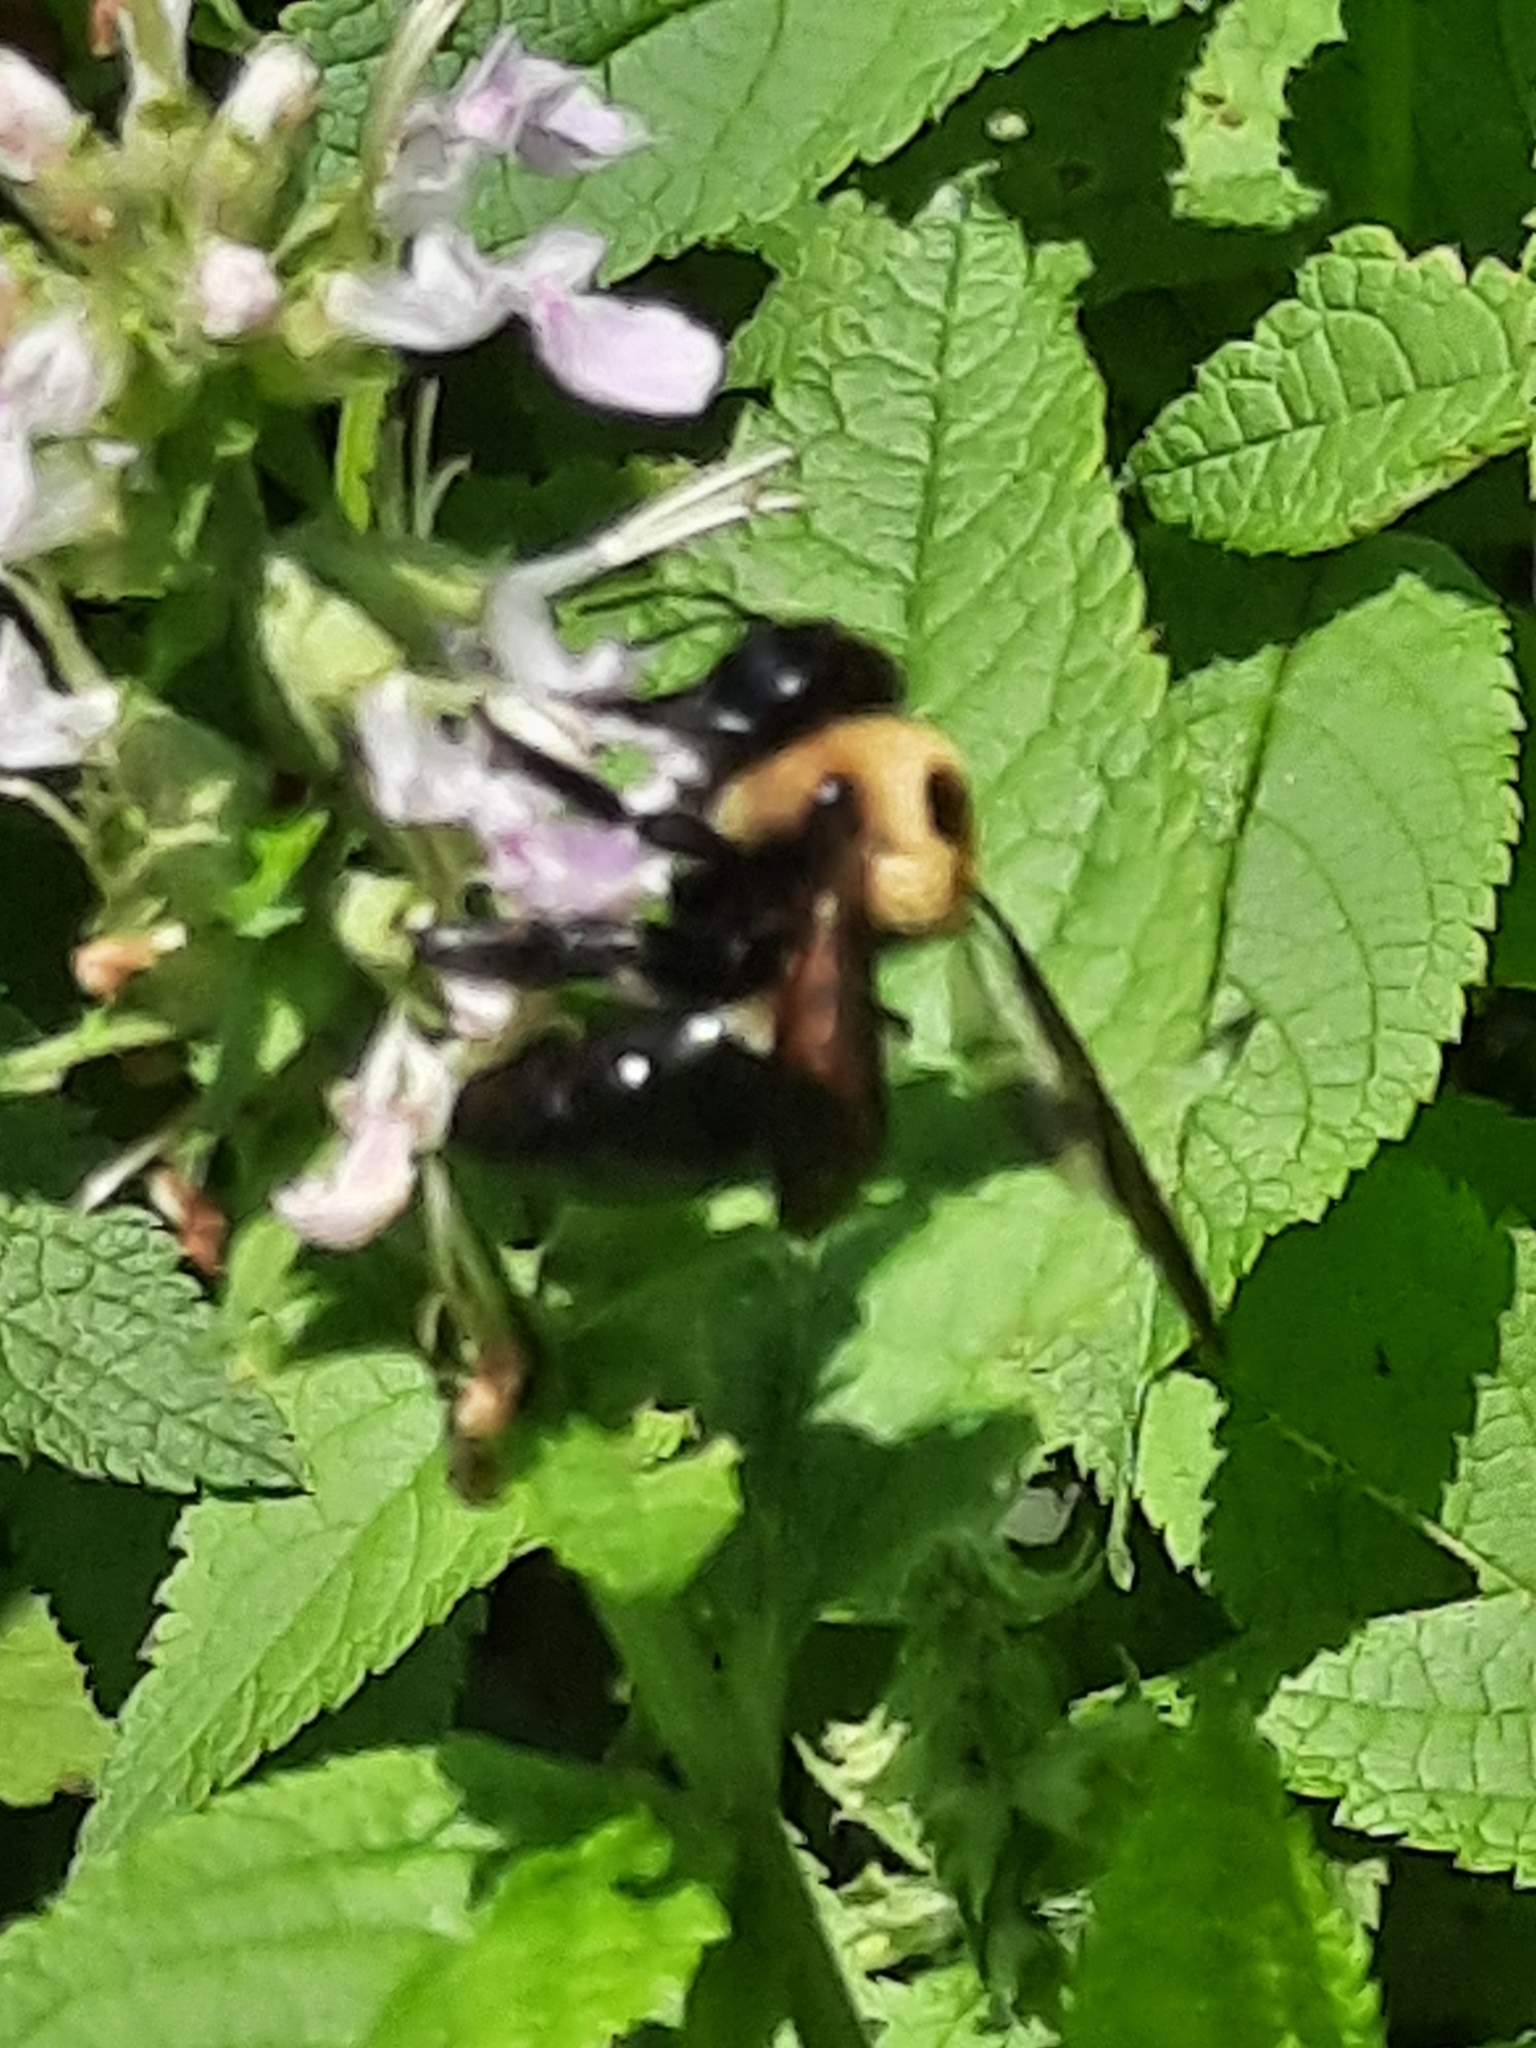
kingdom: Animalia
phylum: Arthropoda
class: Insecta
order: Hymenoptera
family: Apidae
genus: Xylocopa
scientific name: Xylocopa virginica
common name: Carpenter bee
